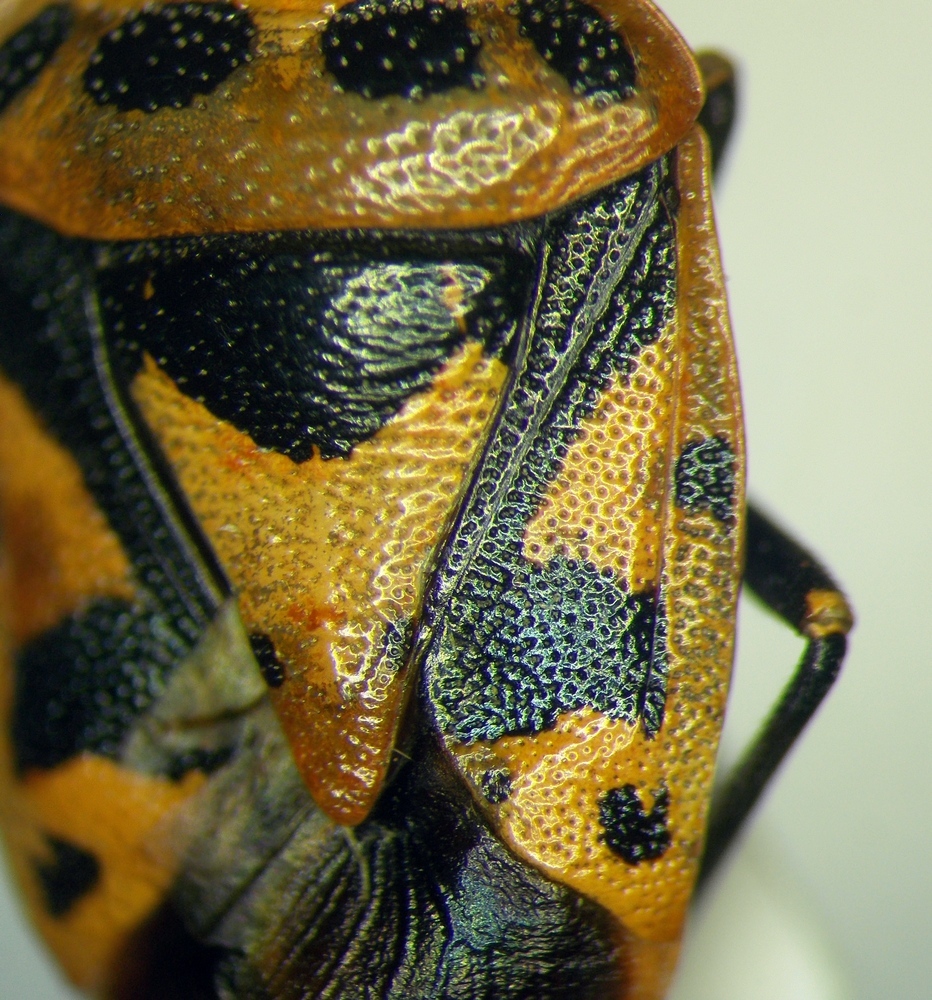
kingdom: Animalia
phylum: Arthropoda
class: Insecta
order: Hemiptera
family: Pentatomidae
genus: Eurydema
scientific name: Eurydema ornata
